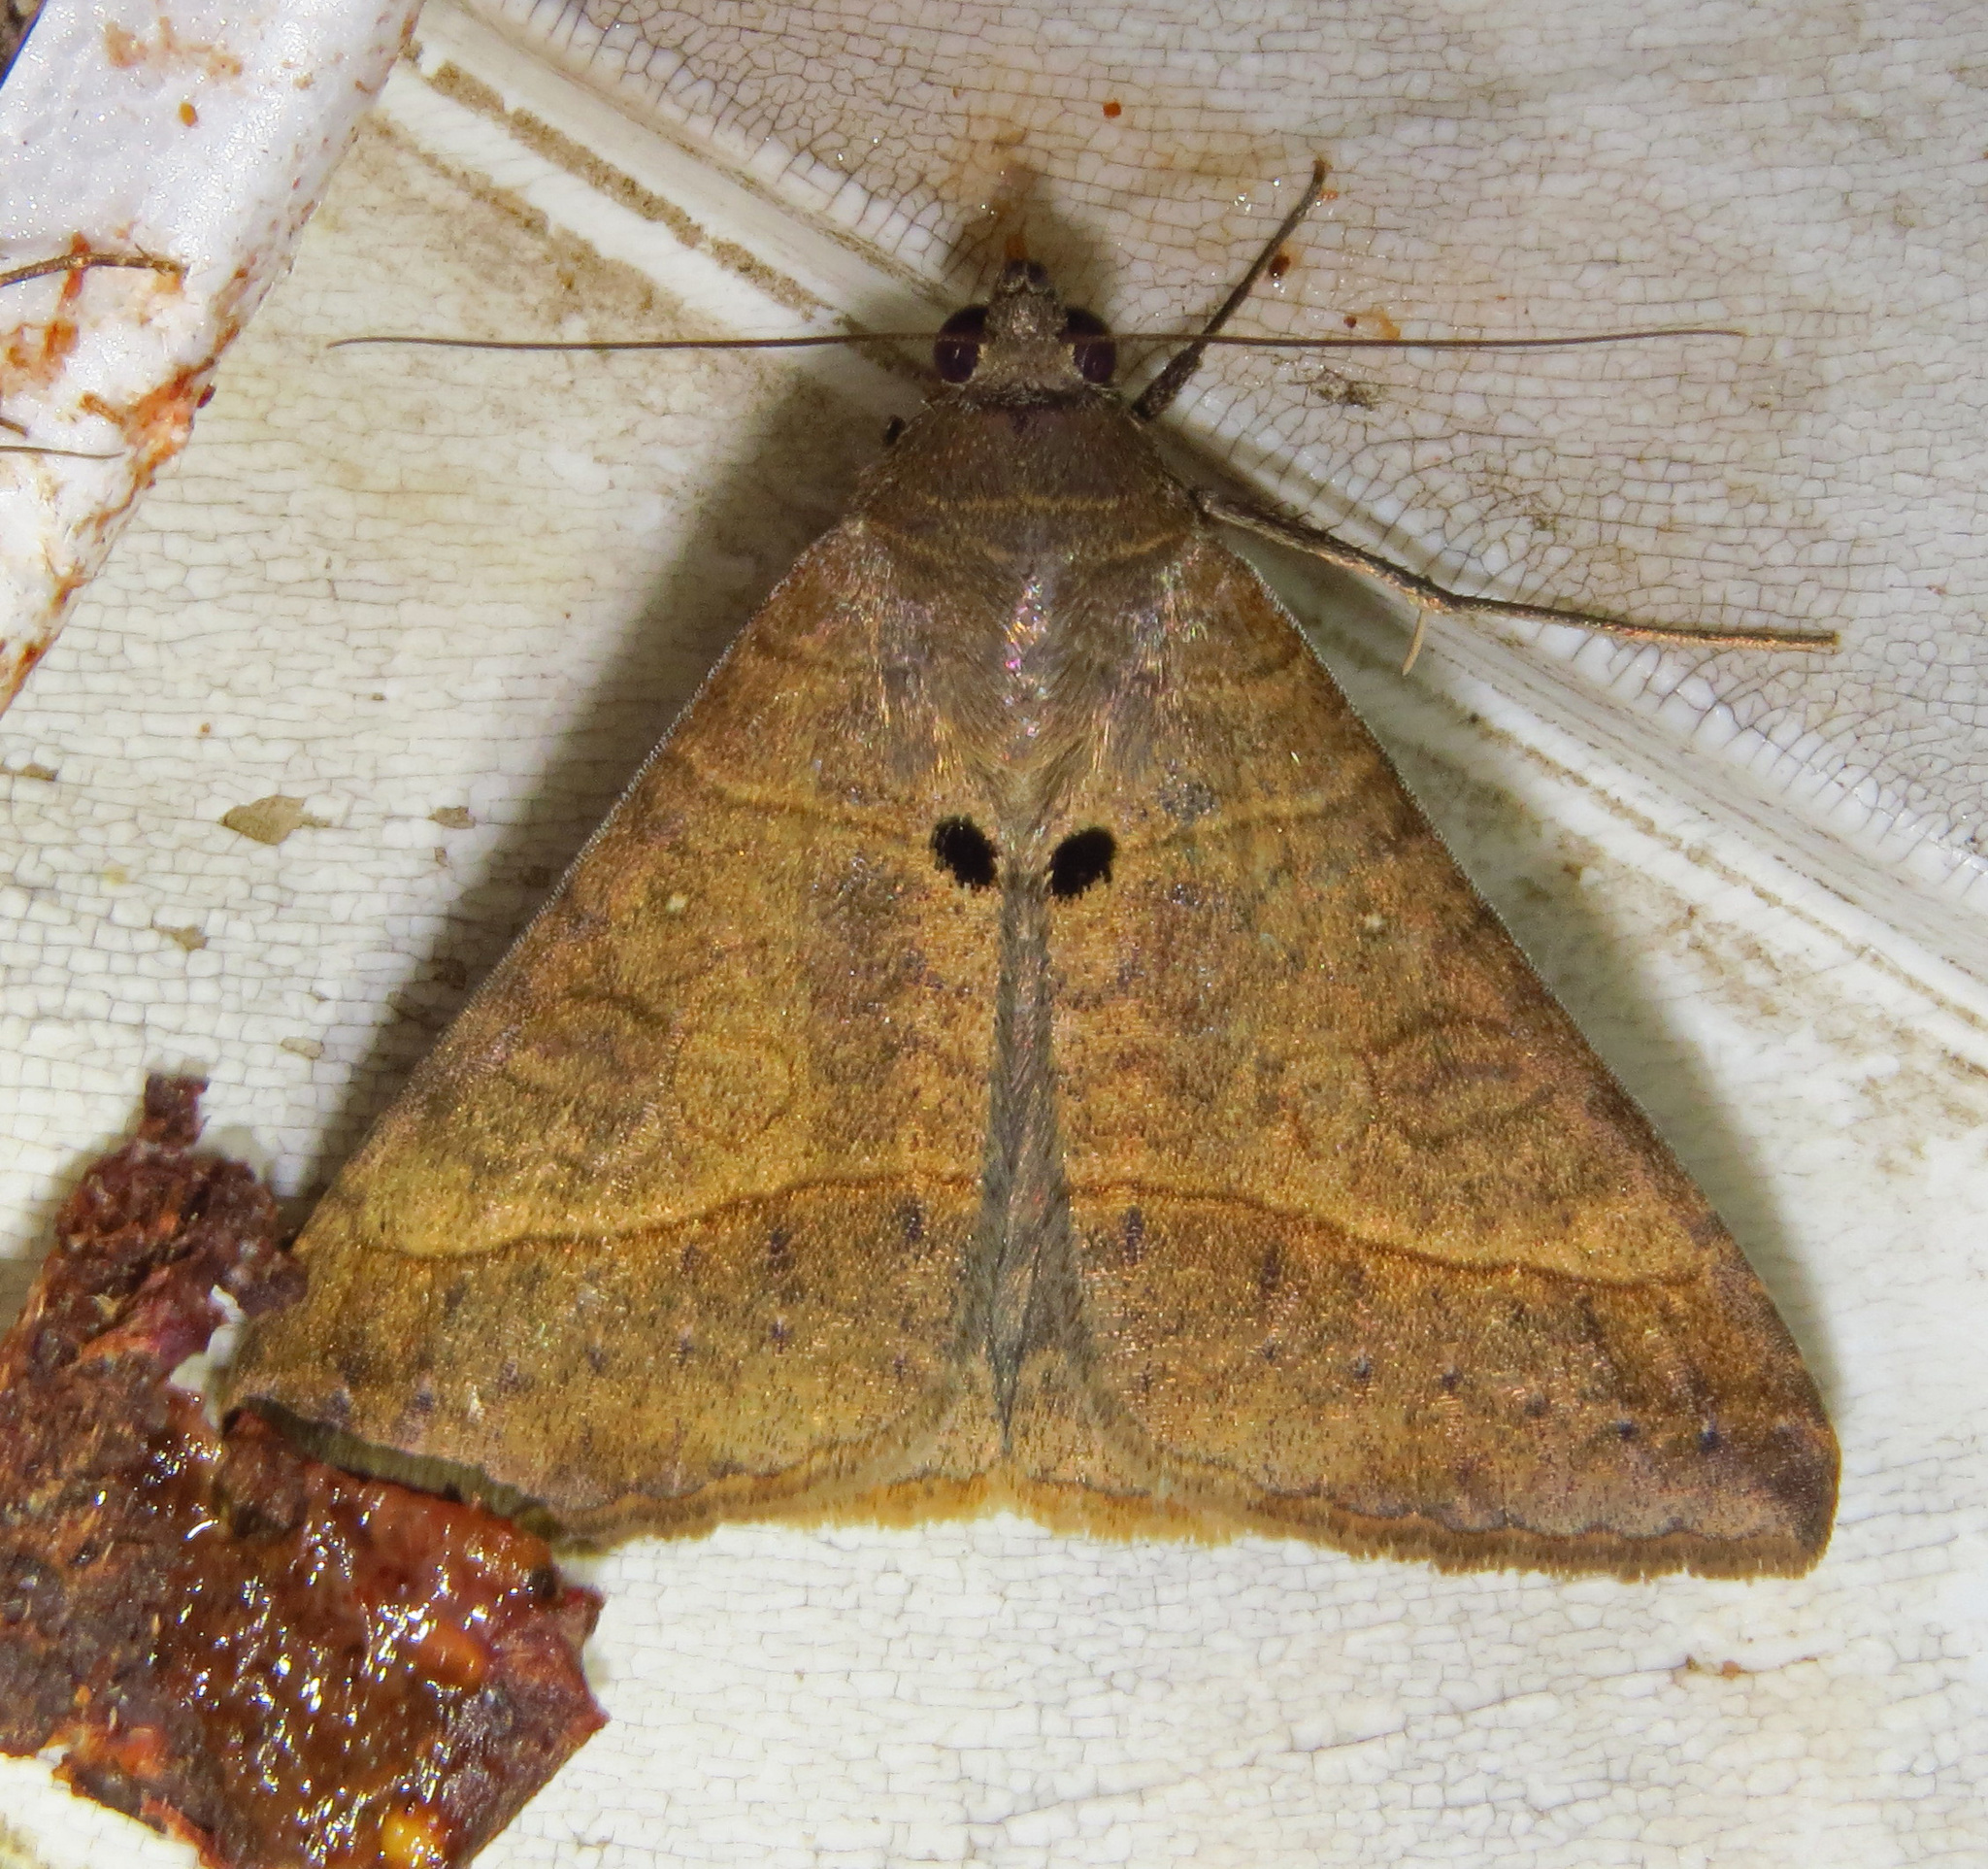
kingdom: Animalia
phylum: Arthropoda
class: Insecta
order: Lepidoptera
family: Erebidae
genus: Mocis
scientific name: Mocis latipes
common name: Striped grass looper
